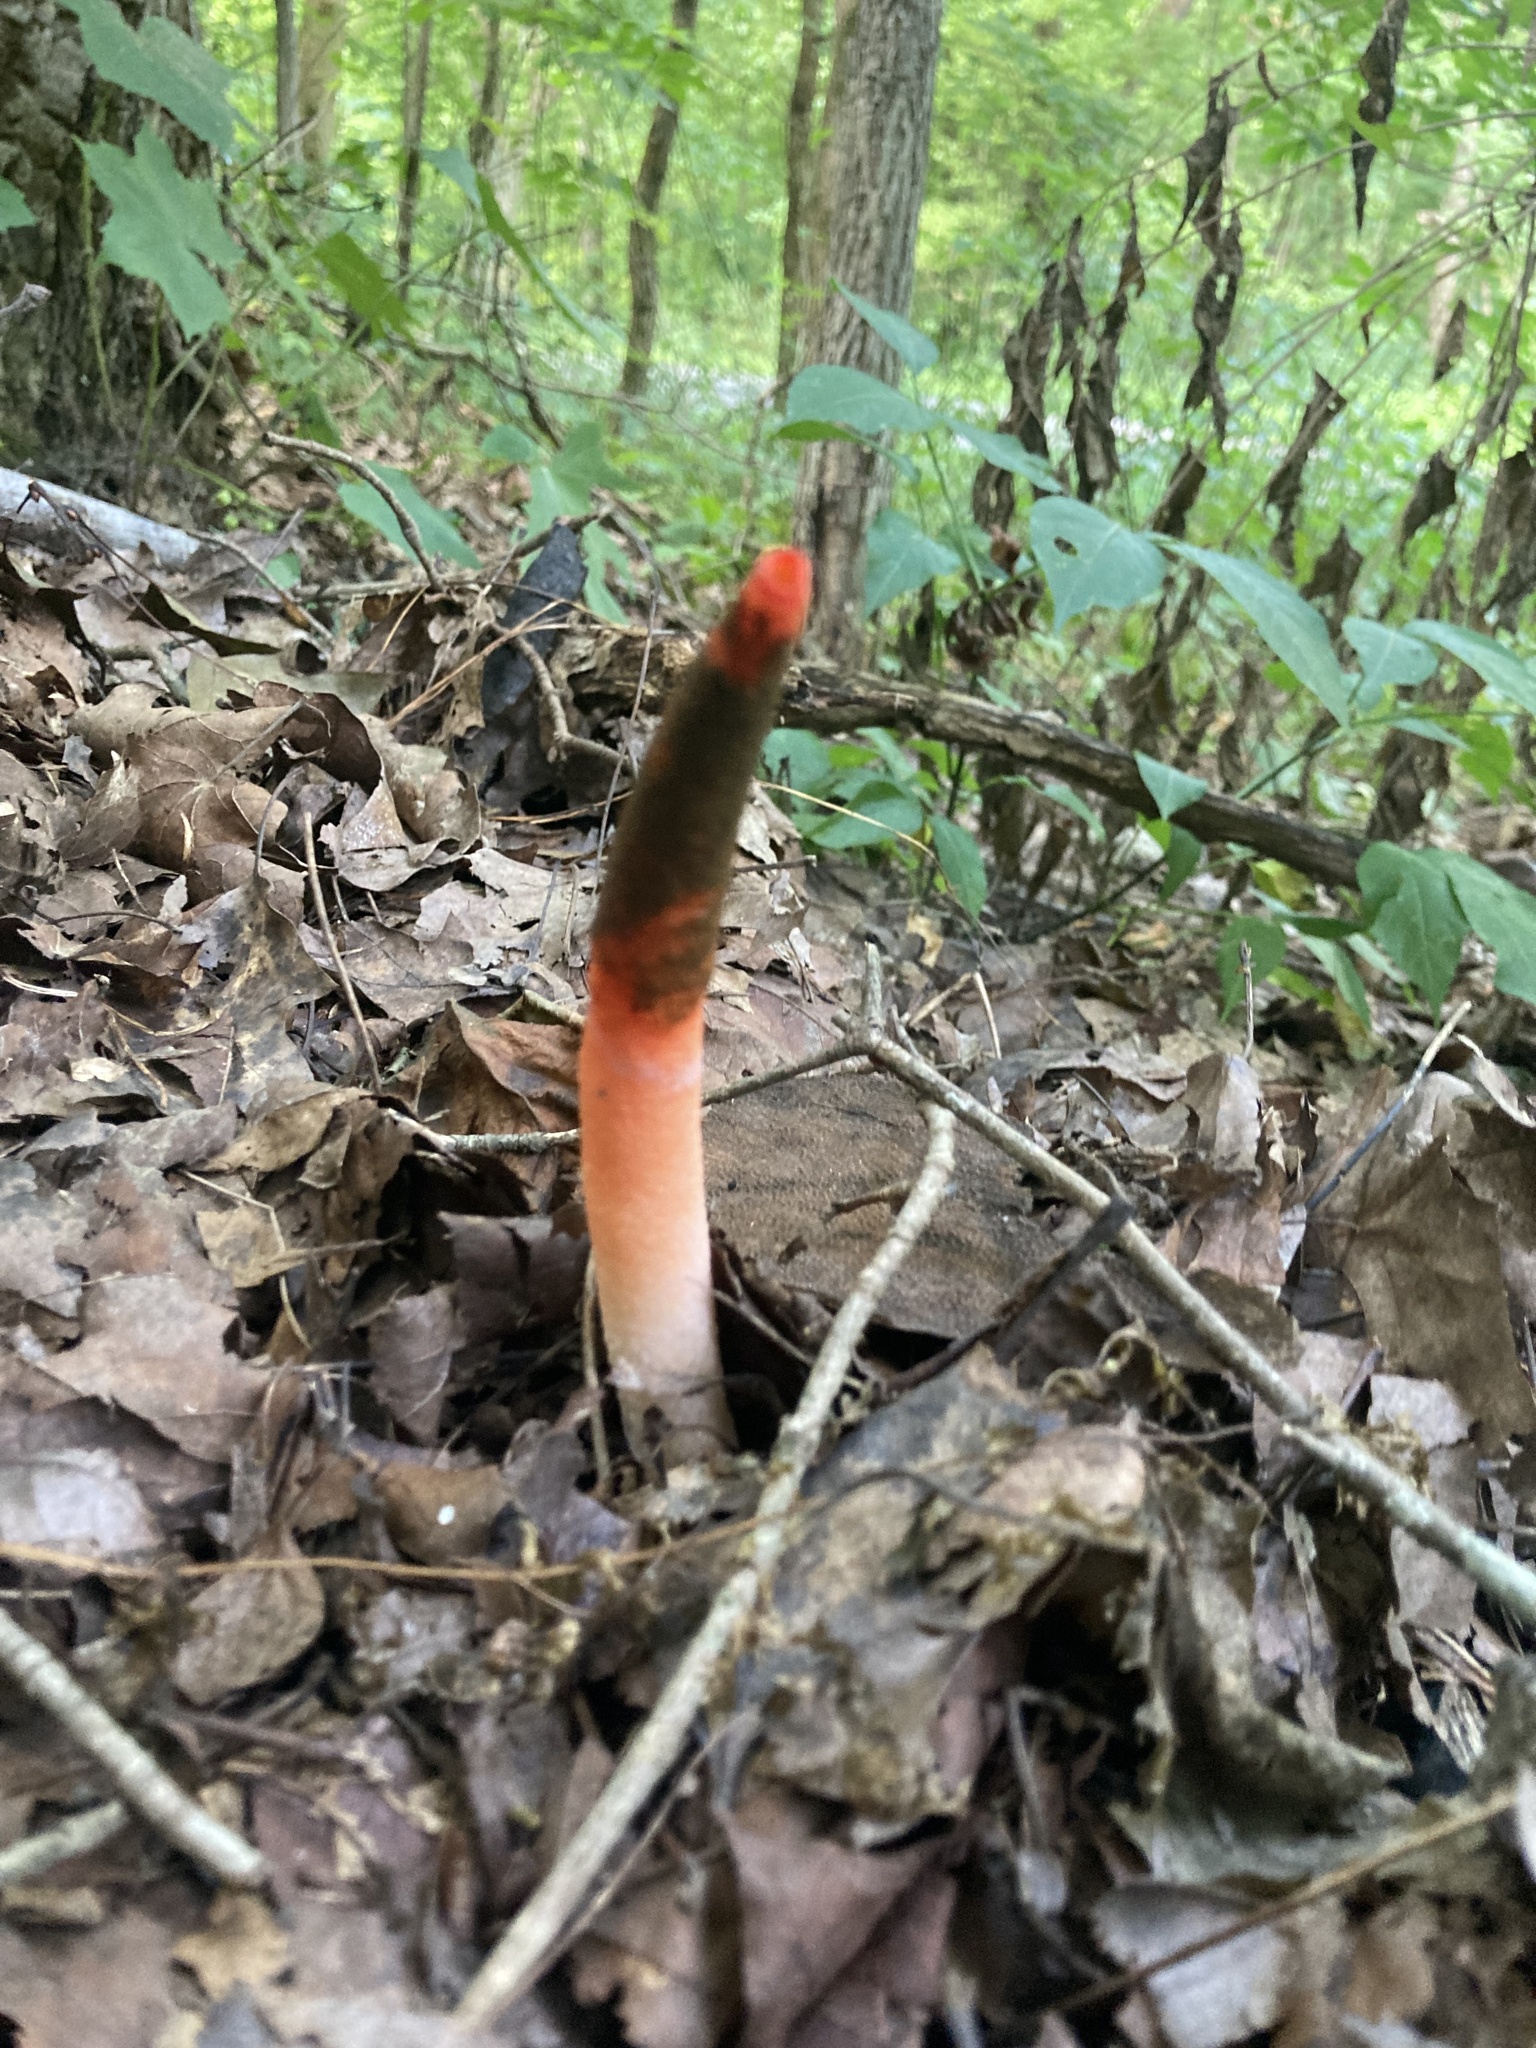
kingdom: Fungi
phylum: Basidiomycota
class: Agaricomycetes
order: Phallales
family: Phallaceae
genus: Mutinus
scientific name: Mutinus elegans
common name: Devil's dipstick
